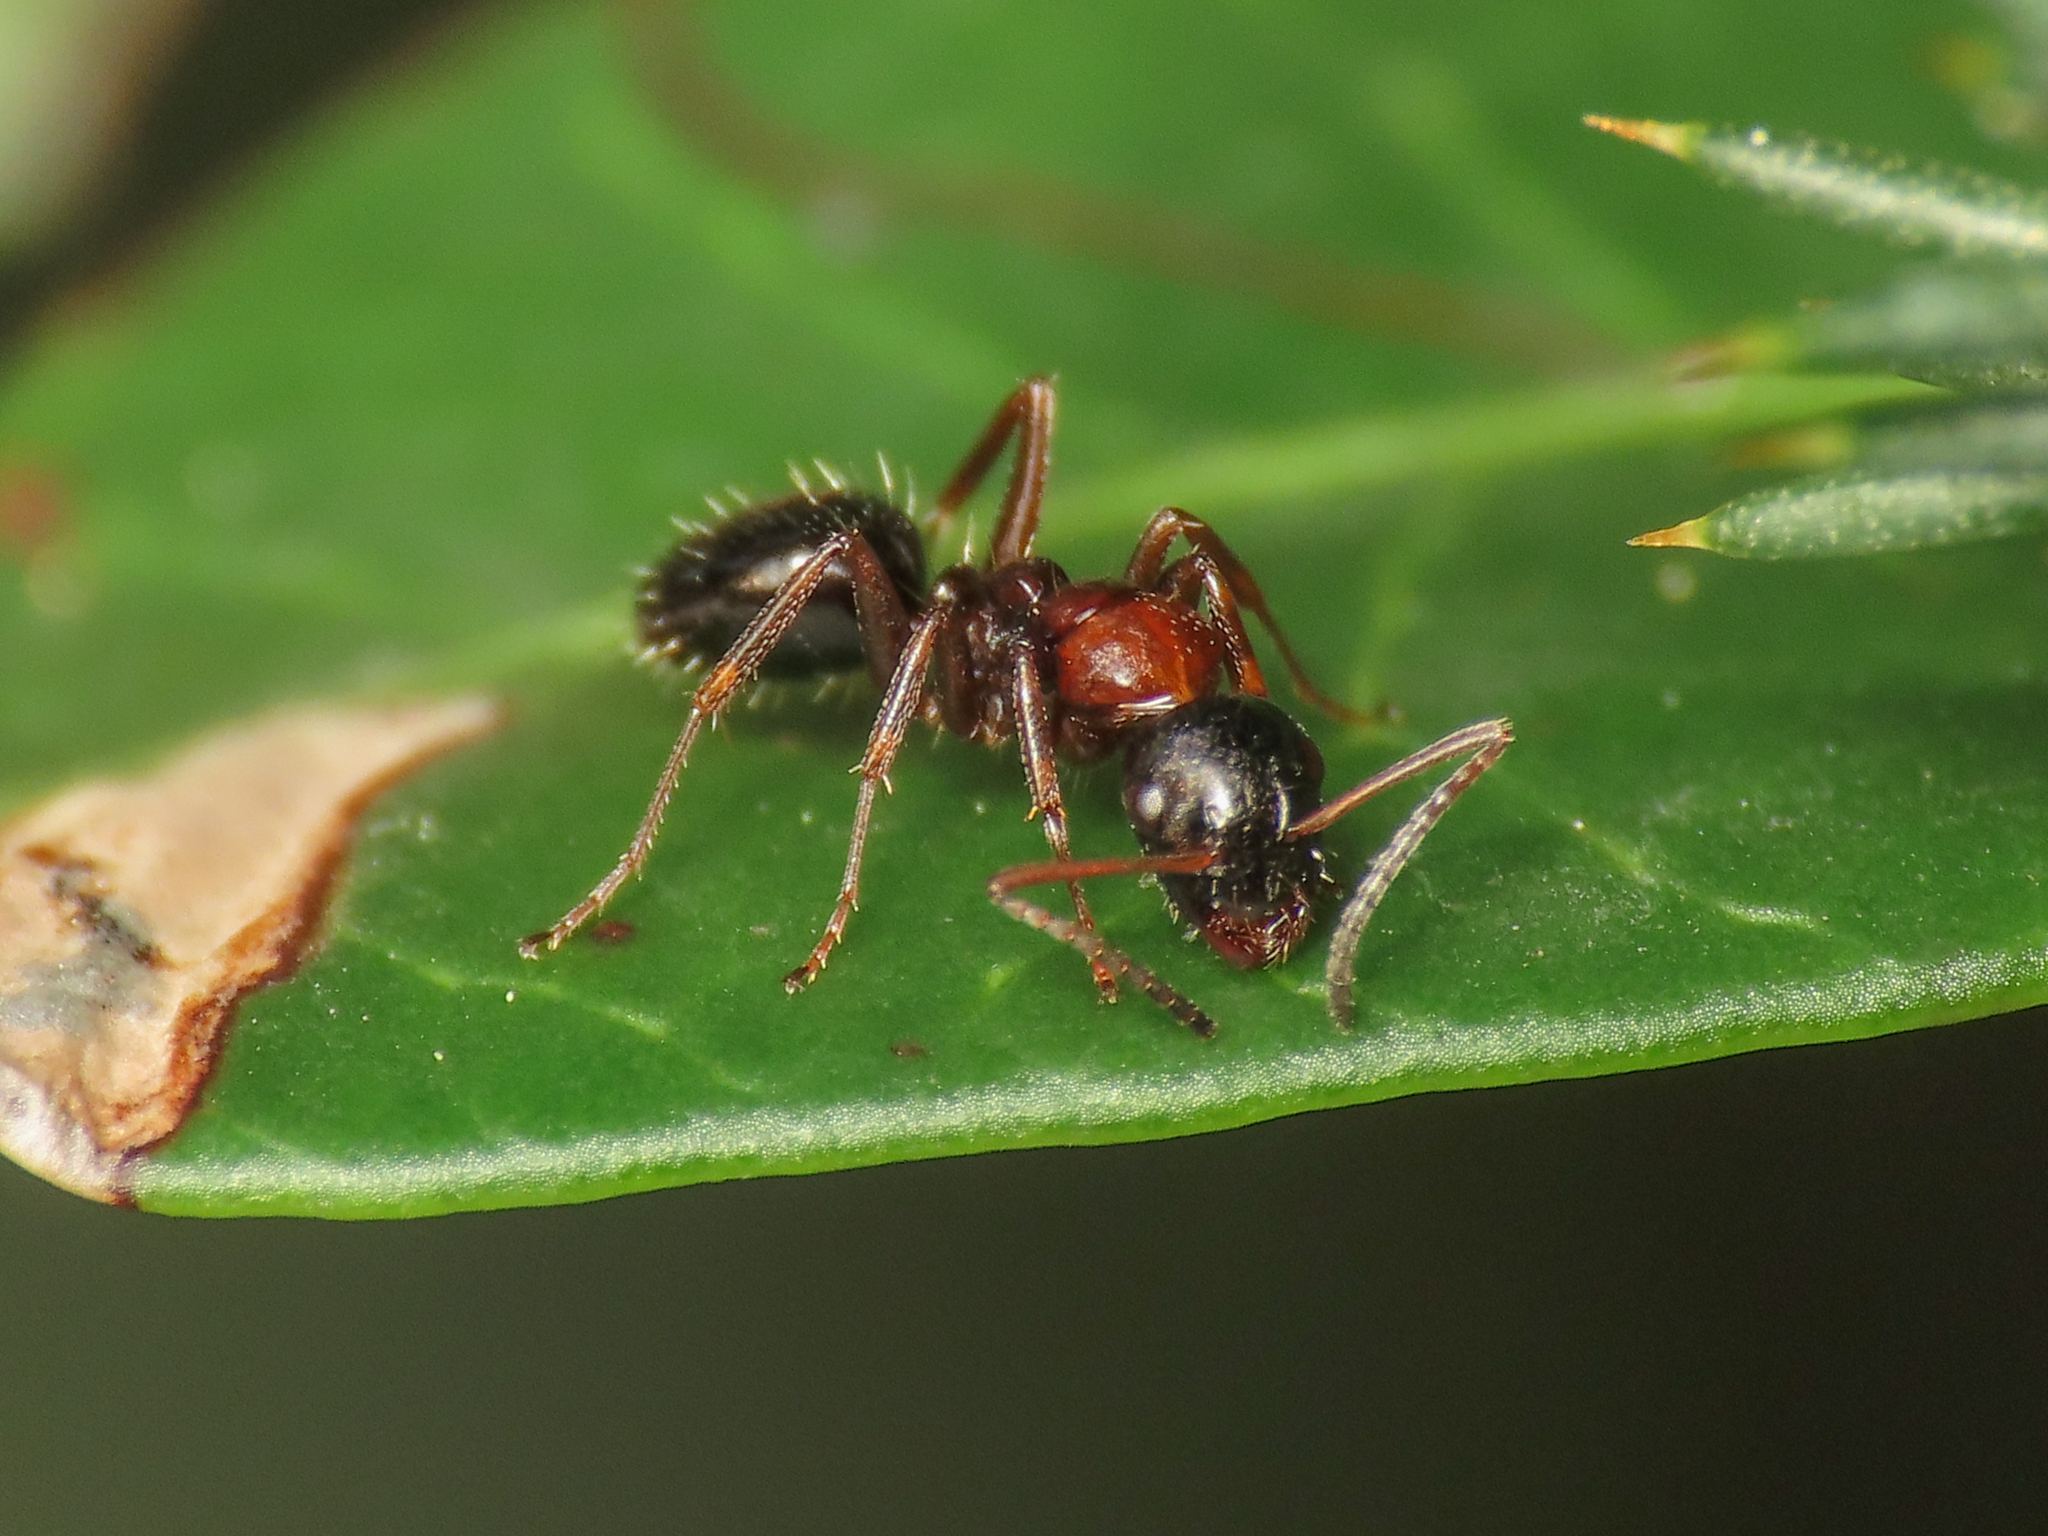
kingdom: Animalia
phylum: Arthropoda
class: Insecta
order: Hymenoptera
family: Formicidae
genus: Camponotus
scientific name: Camponotus dalmaticus
